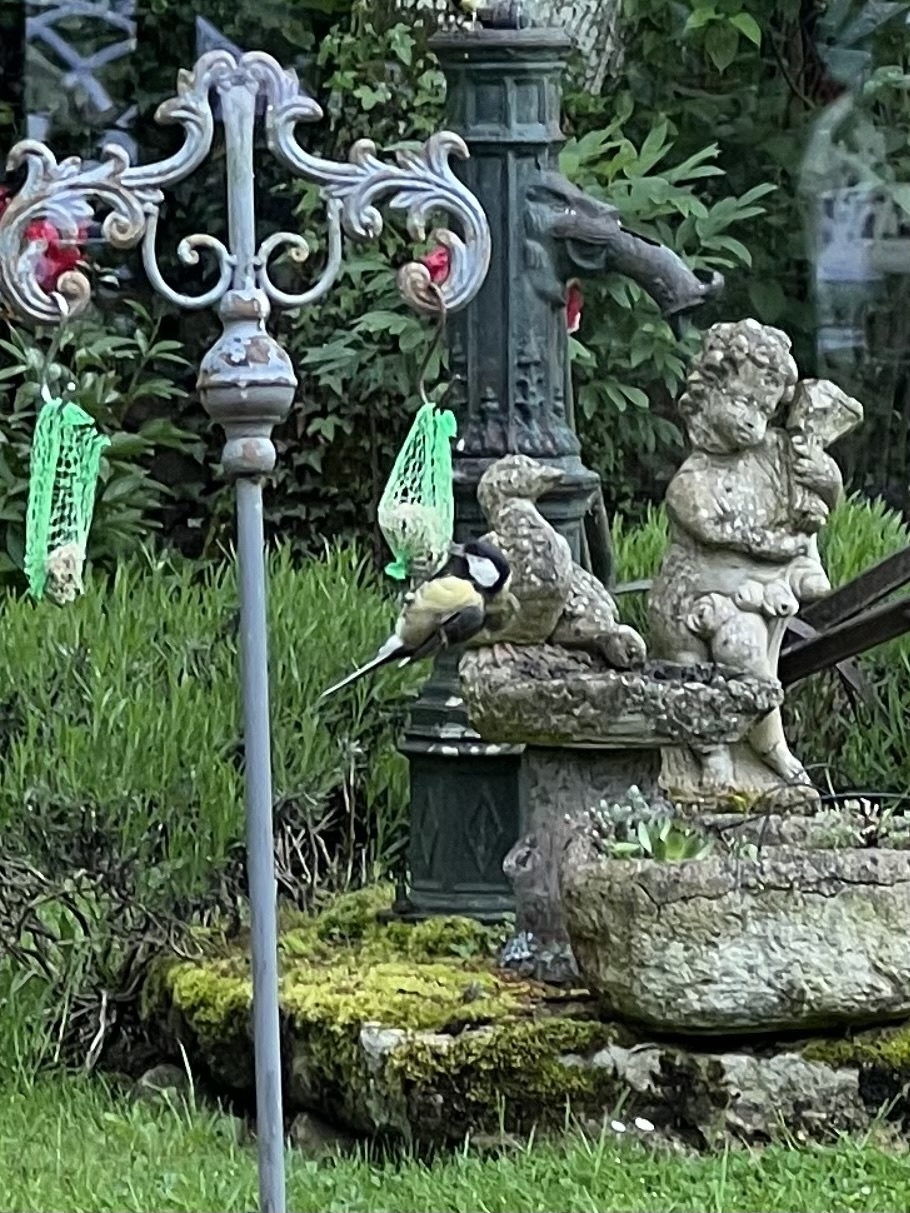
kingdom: Animalia
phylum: Chordata
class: Aves
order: Passeriformes
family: Paridae
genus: Parus
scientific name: Parus major
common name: Great tit
